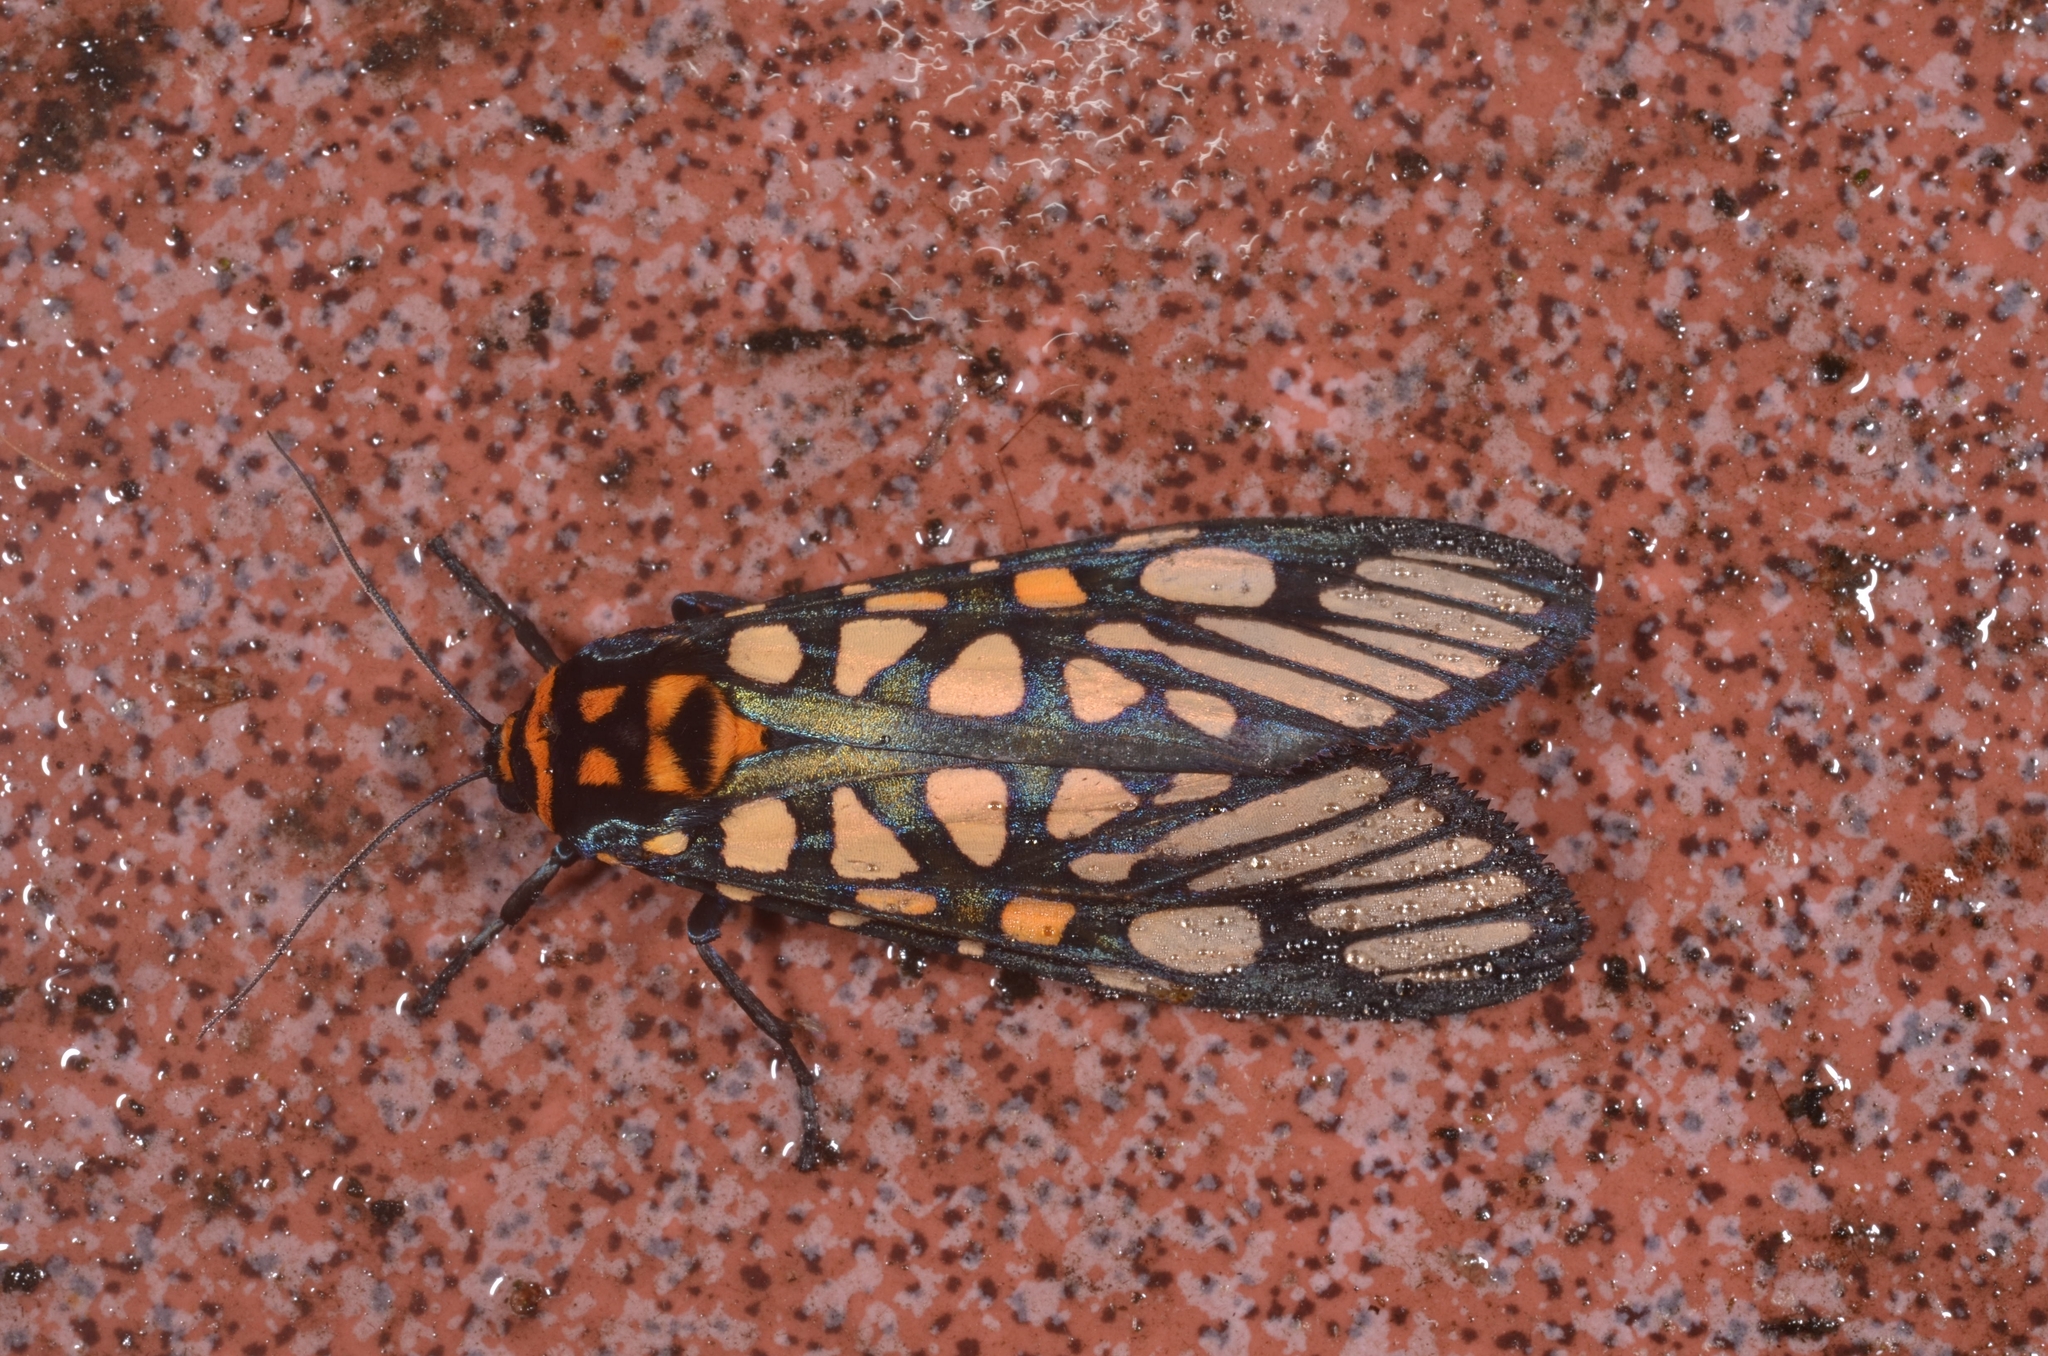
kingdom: Animalia
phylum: Arthropoda
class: Insecta
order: Lepidoptera
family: Erebidae
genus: Aglaomorpha
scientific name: Aglaomorpha plagiata
